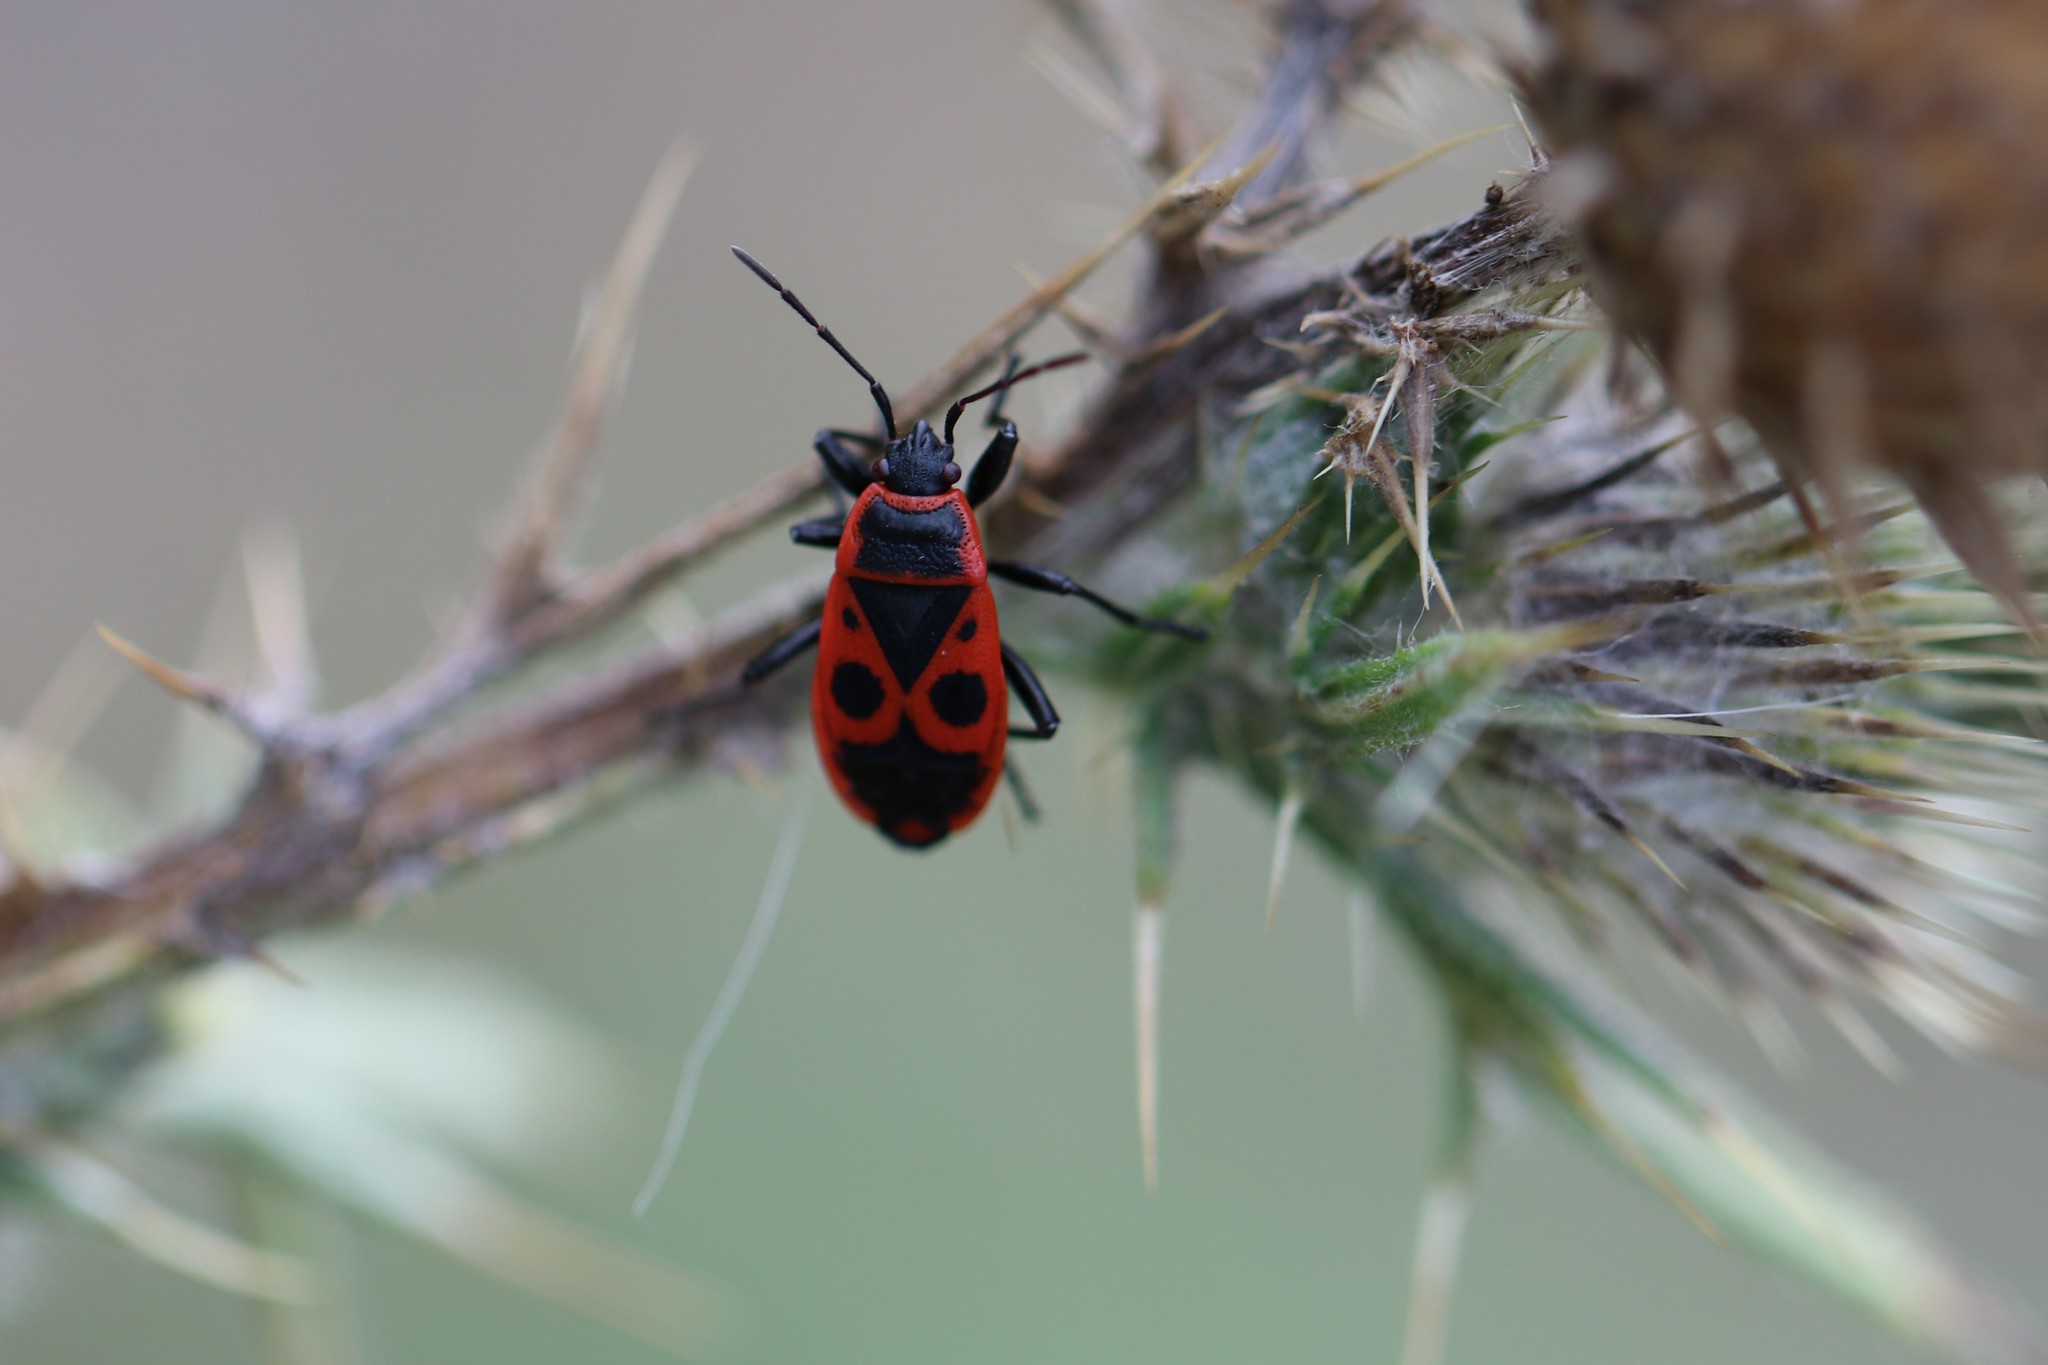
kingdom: Animalia
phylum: Arthropoda
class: Insecta
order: Hemiptera
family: Pyrrhocoridae
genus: Pyrrhocoris
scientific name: Pyrrhocoris apterus
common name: Firebug
